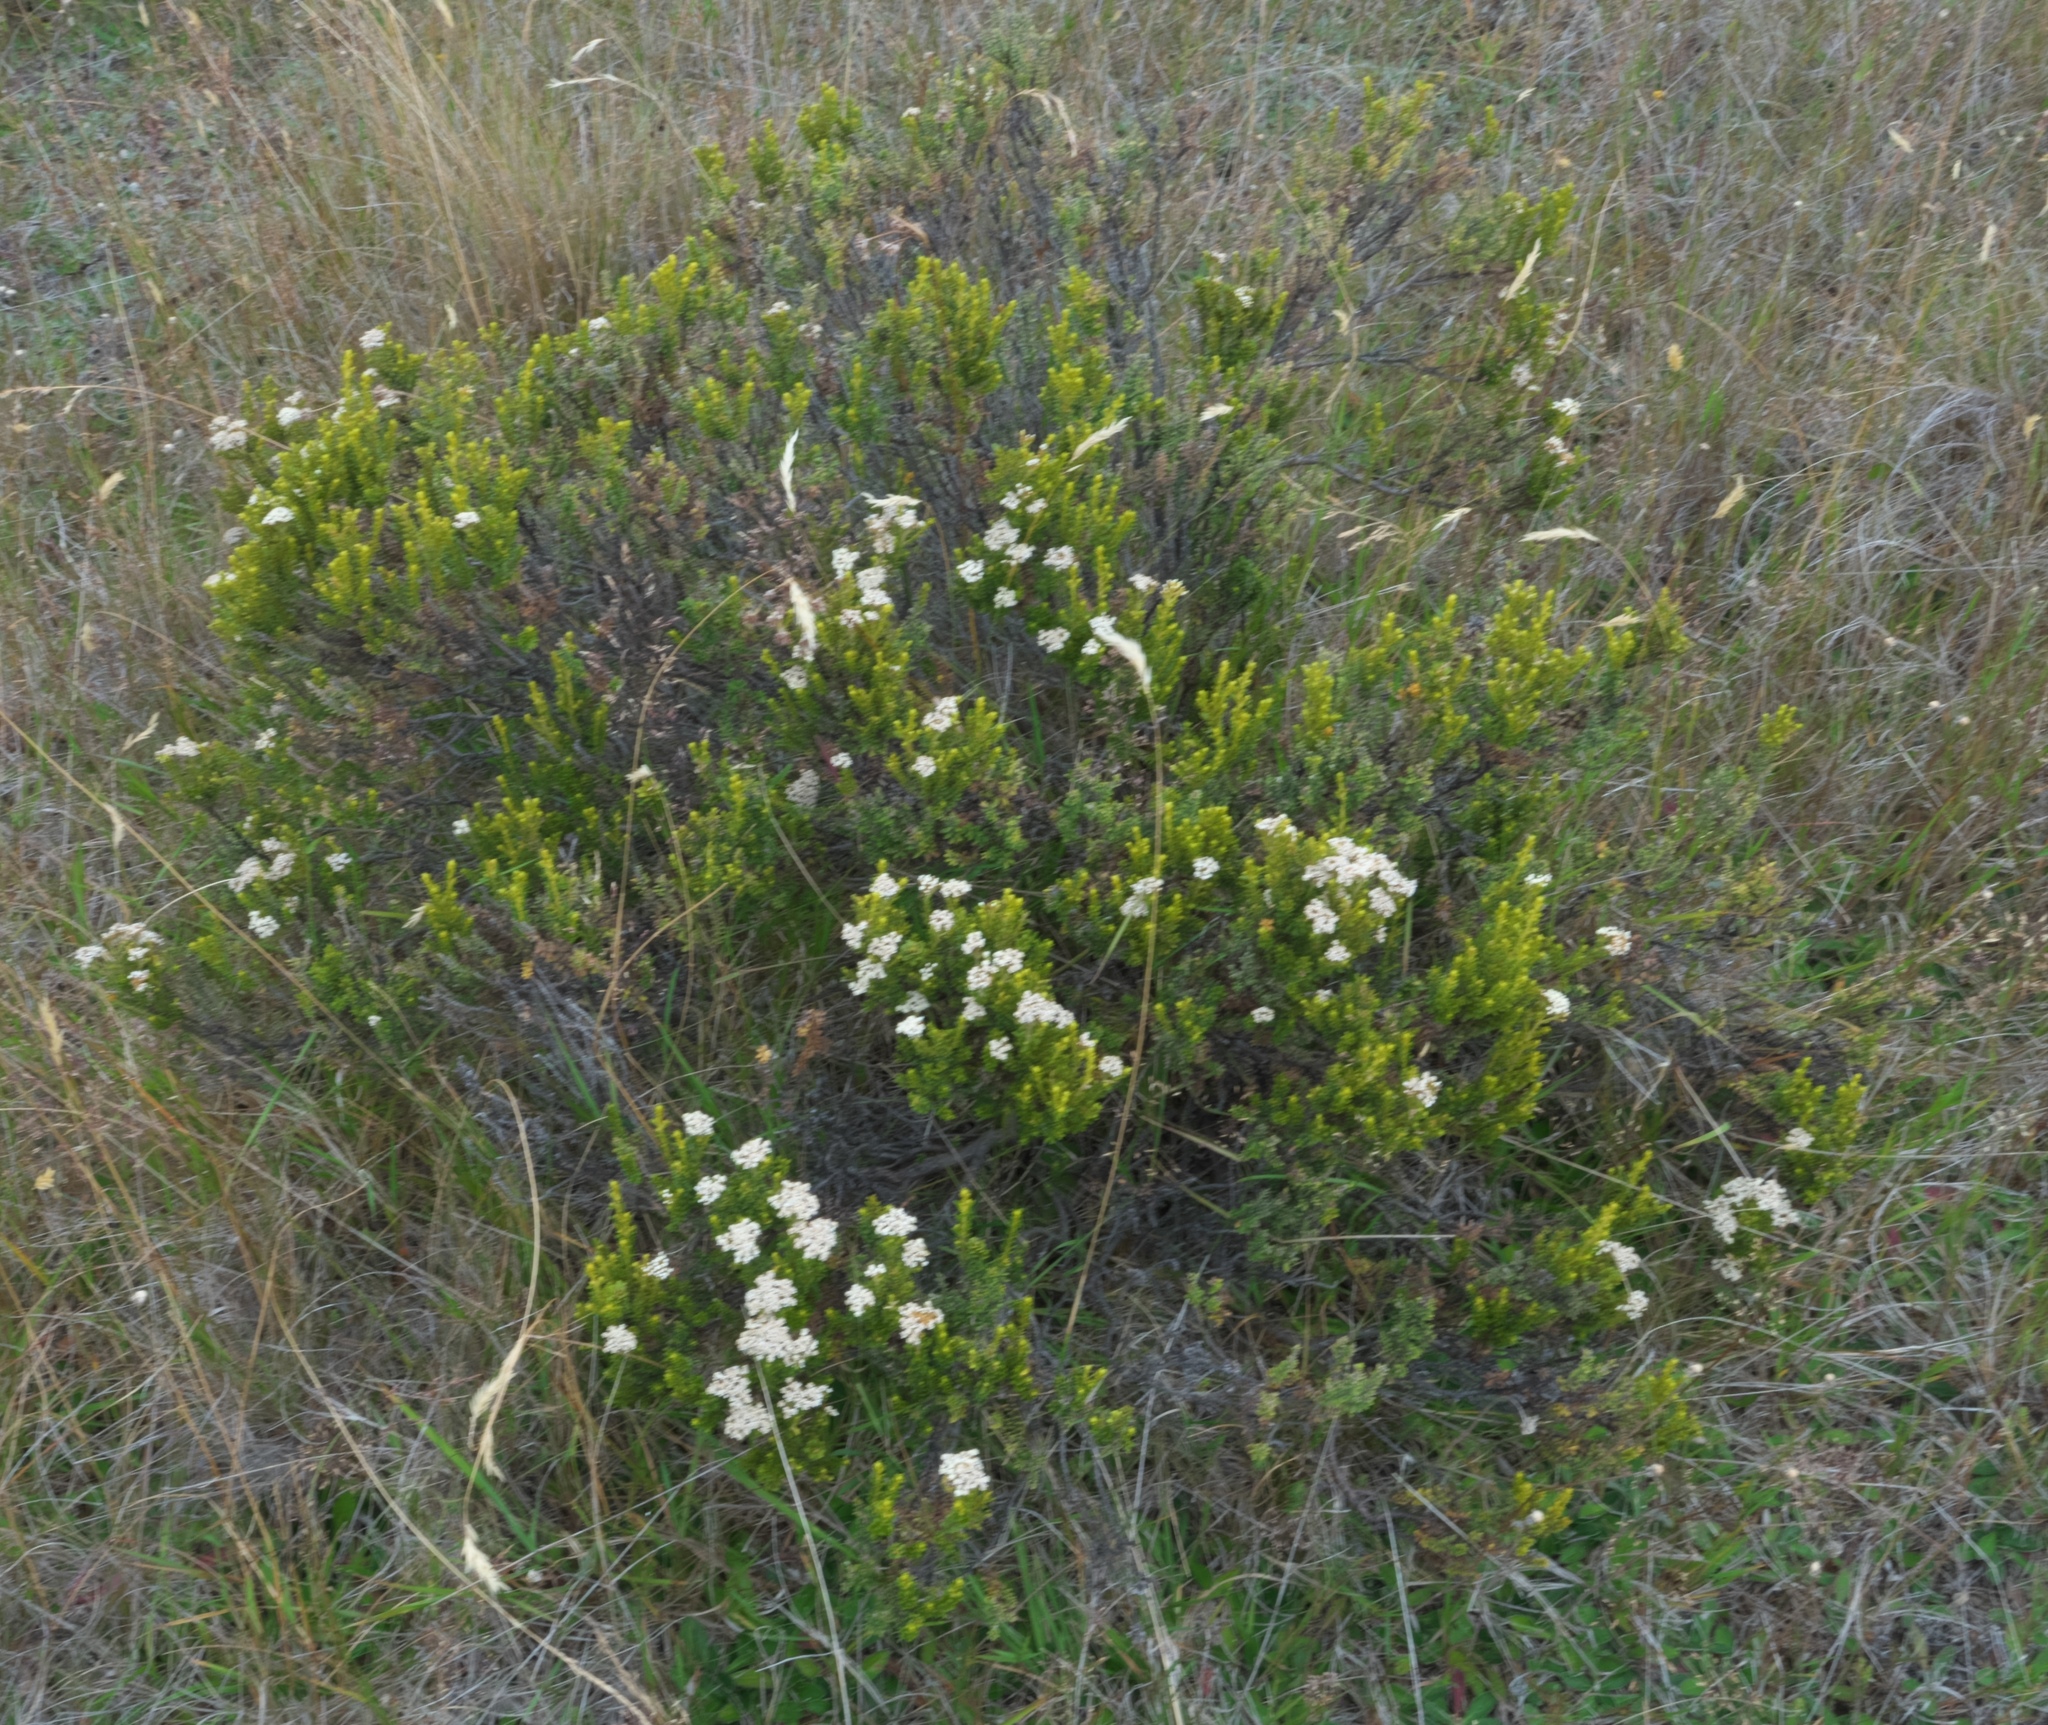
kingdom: Plantae
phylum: Tracheophyta
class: Magnoliopsida
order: Asterales
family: Asteraceae
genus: Ozothamnus
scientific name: Ozothamnus leptophyllus
